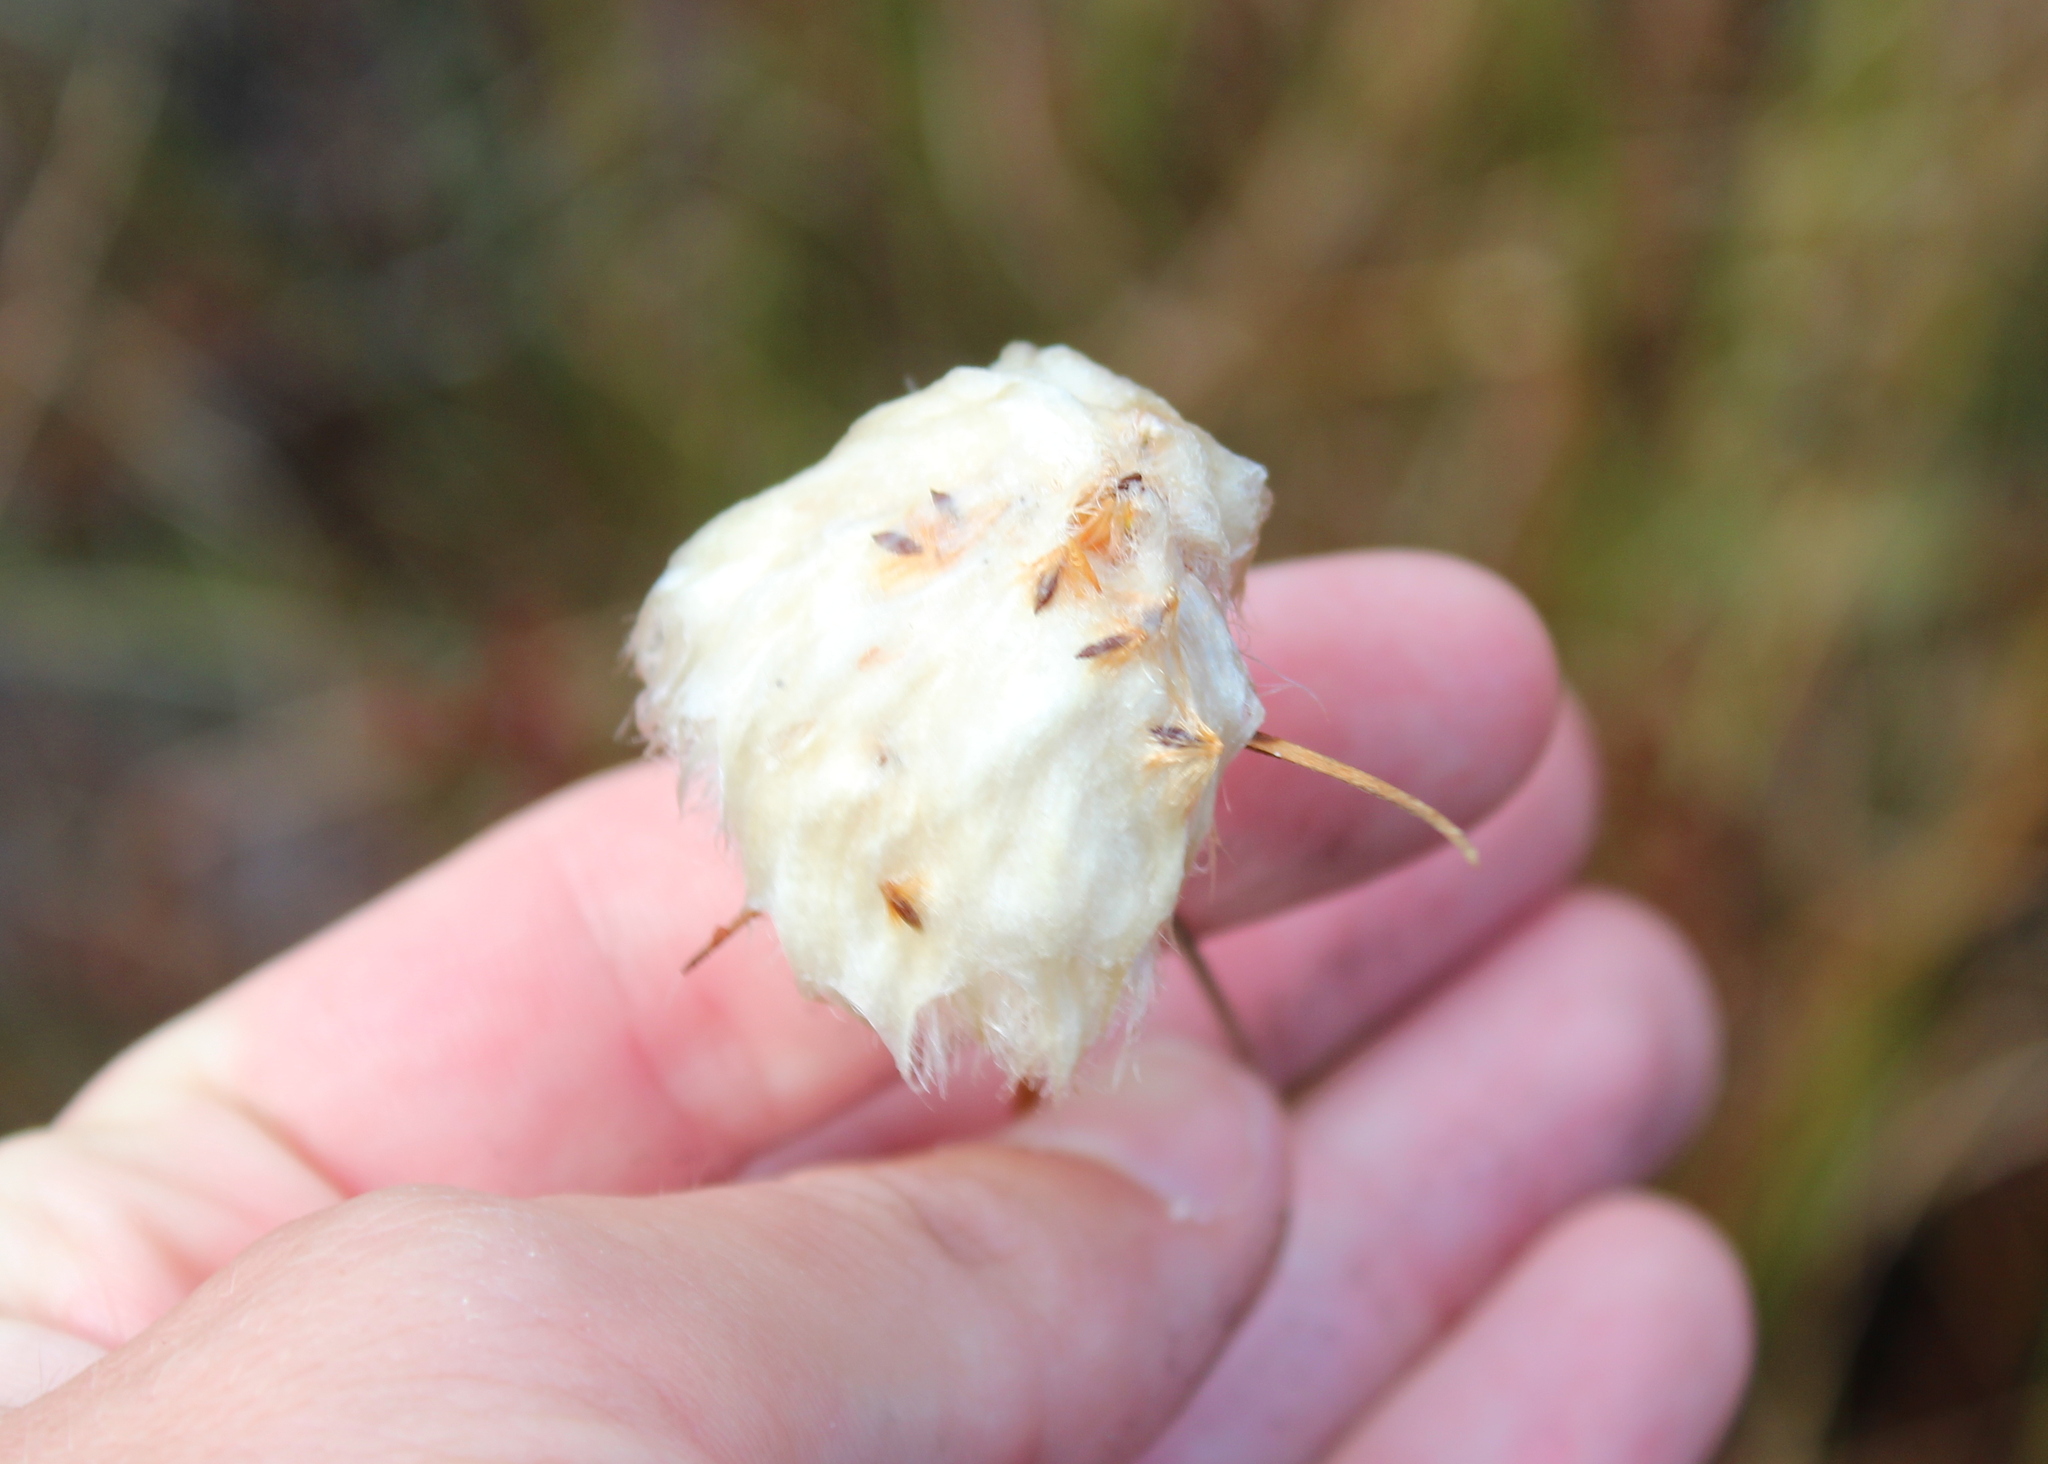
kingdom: Plantae
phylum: Tracheophyta
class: Liliopsida
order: Poales
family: Cyperaceae
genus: Eriophorum
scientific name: Eriophorum virginicum
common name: Tawny cottongrass
